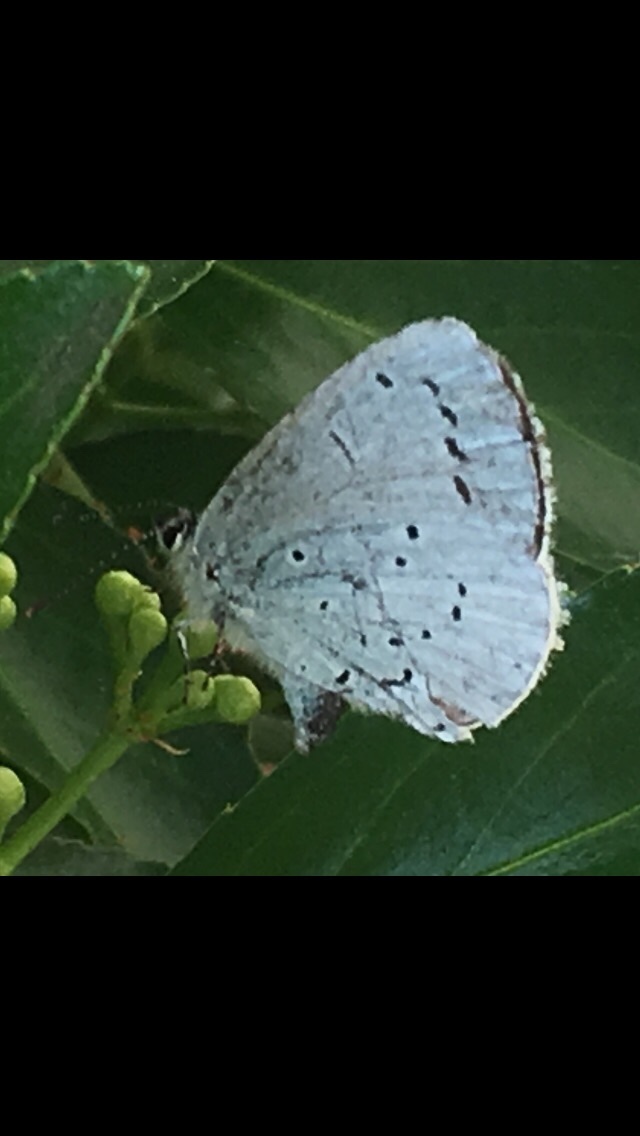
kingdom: Animalia
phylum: Arthropoda
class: Insecta
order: Lepidoptera
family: Lycaenidae
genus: Celastrina
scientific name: Celastrina argiolus
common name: Holly blue
